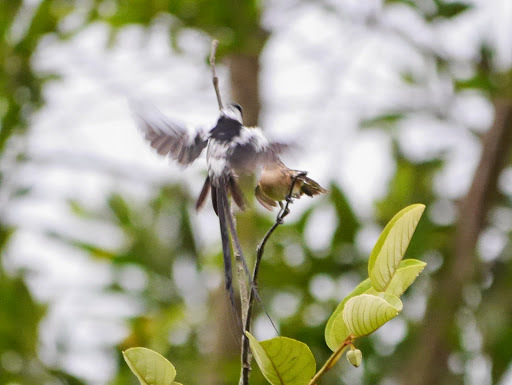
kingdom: Animalia
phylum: Chordata
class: Aves
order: Passeriformes
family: Viduidae
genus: Vidua
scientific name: Vidua macroura
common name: Pin-tailed whydah
